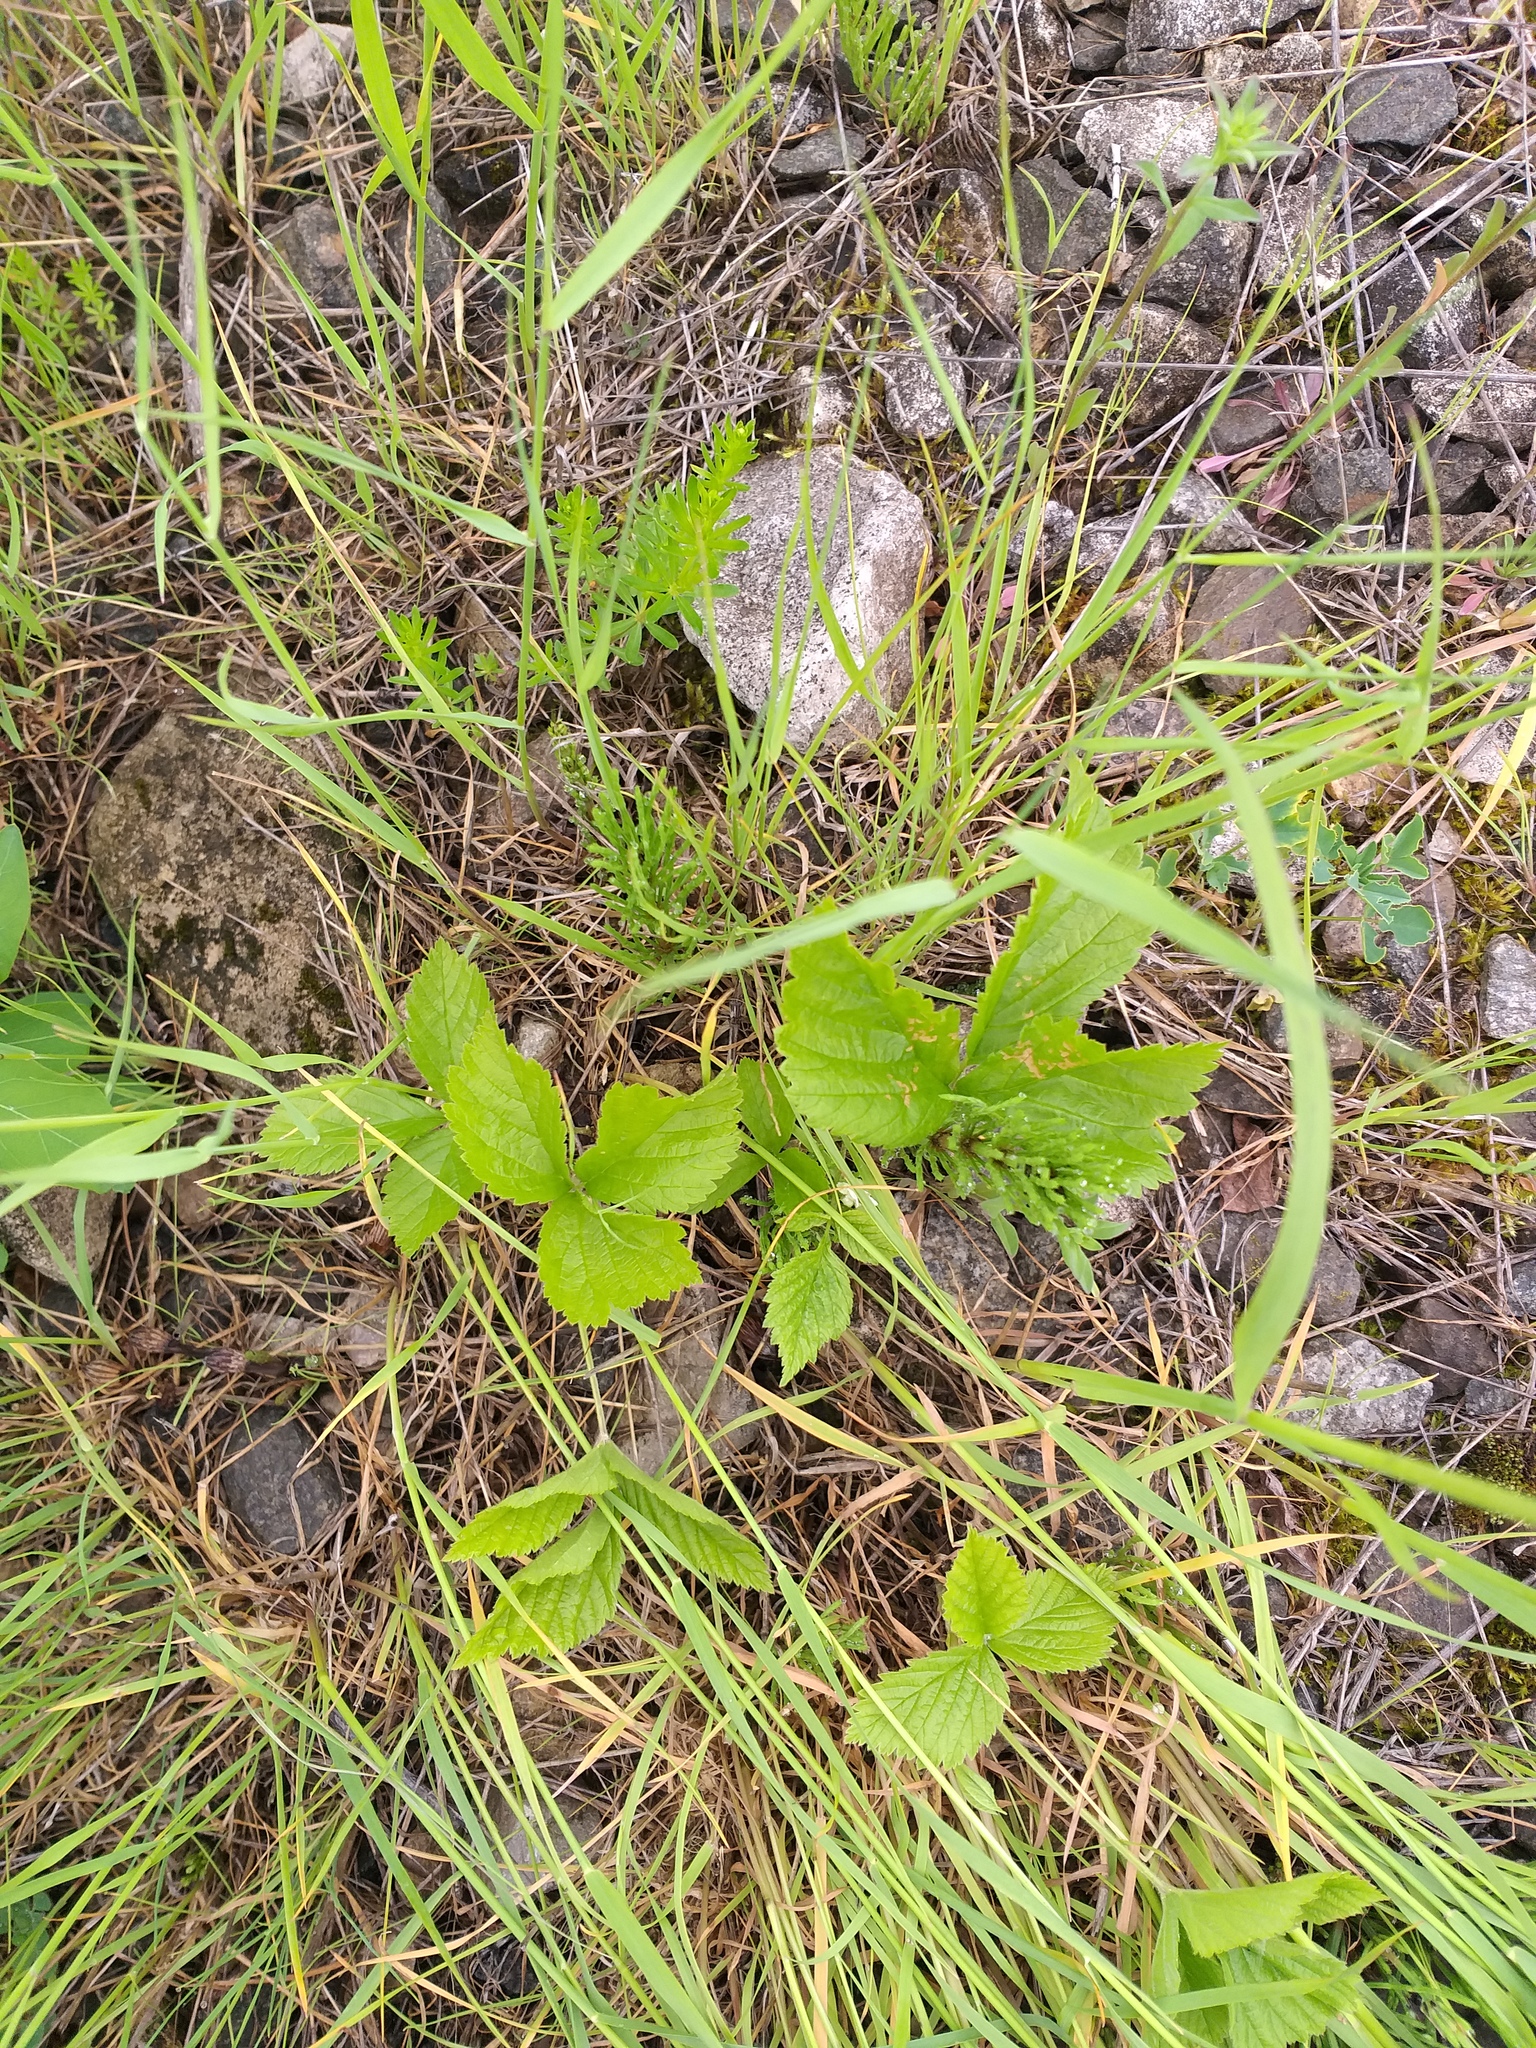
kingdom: Plantae
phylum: Tracheophyta
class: Magnoliopsida
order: Rosales
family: Rosaceae
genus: Rubus
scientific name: Rubus saxatilis
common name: Stone bramble
